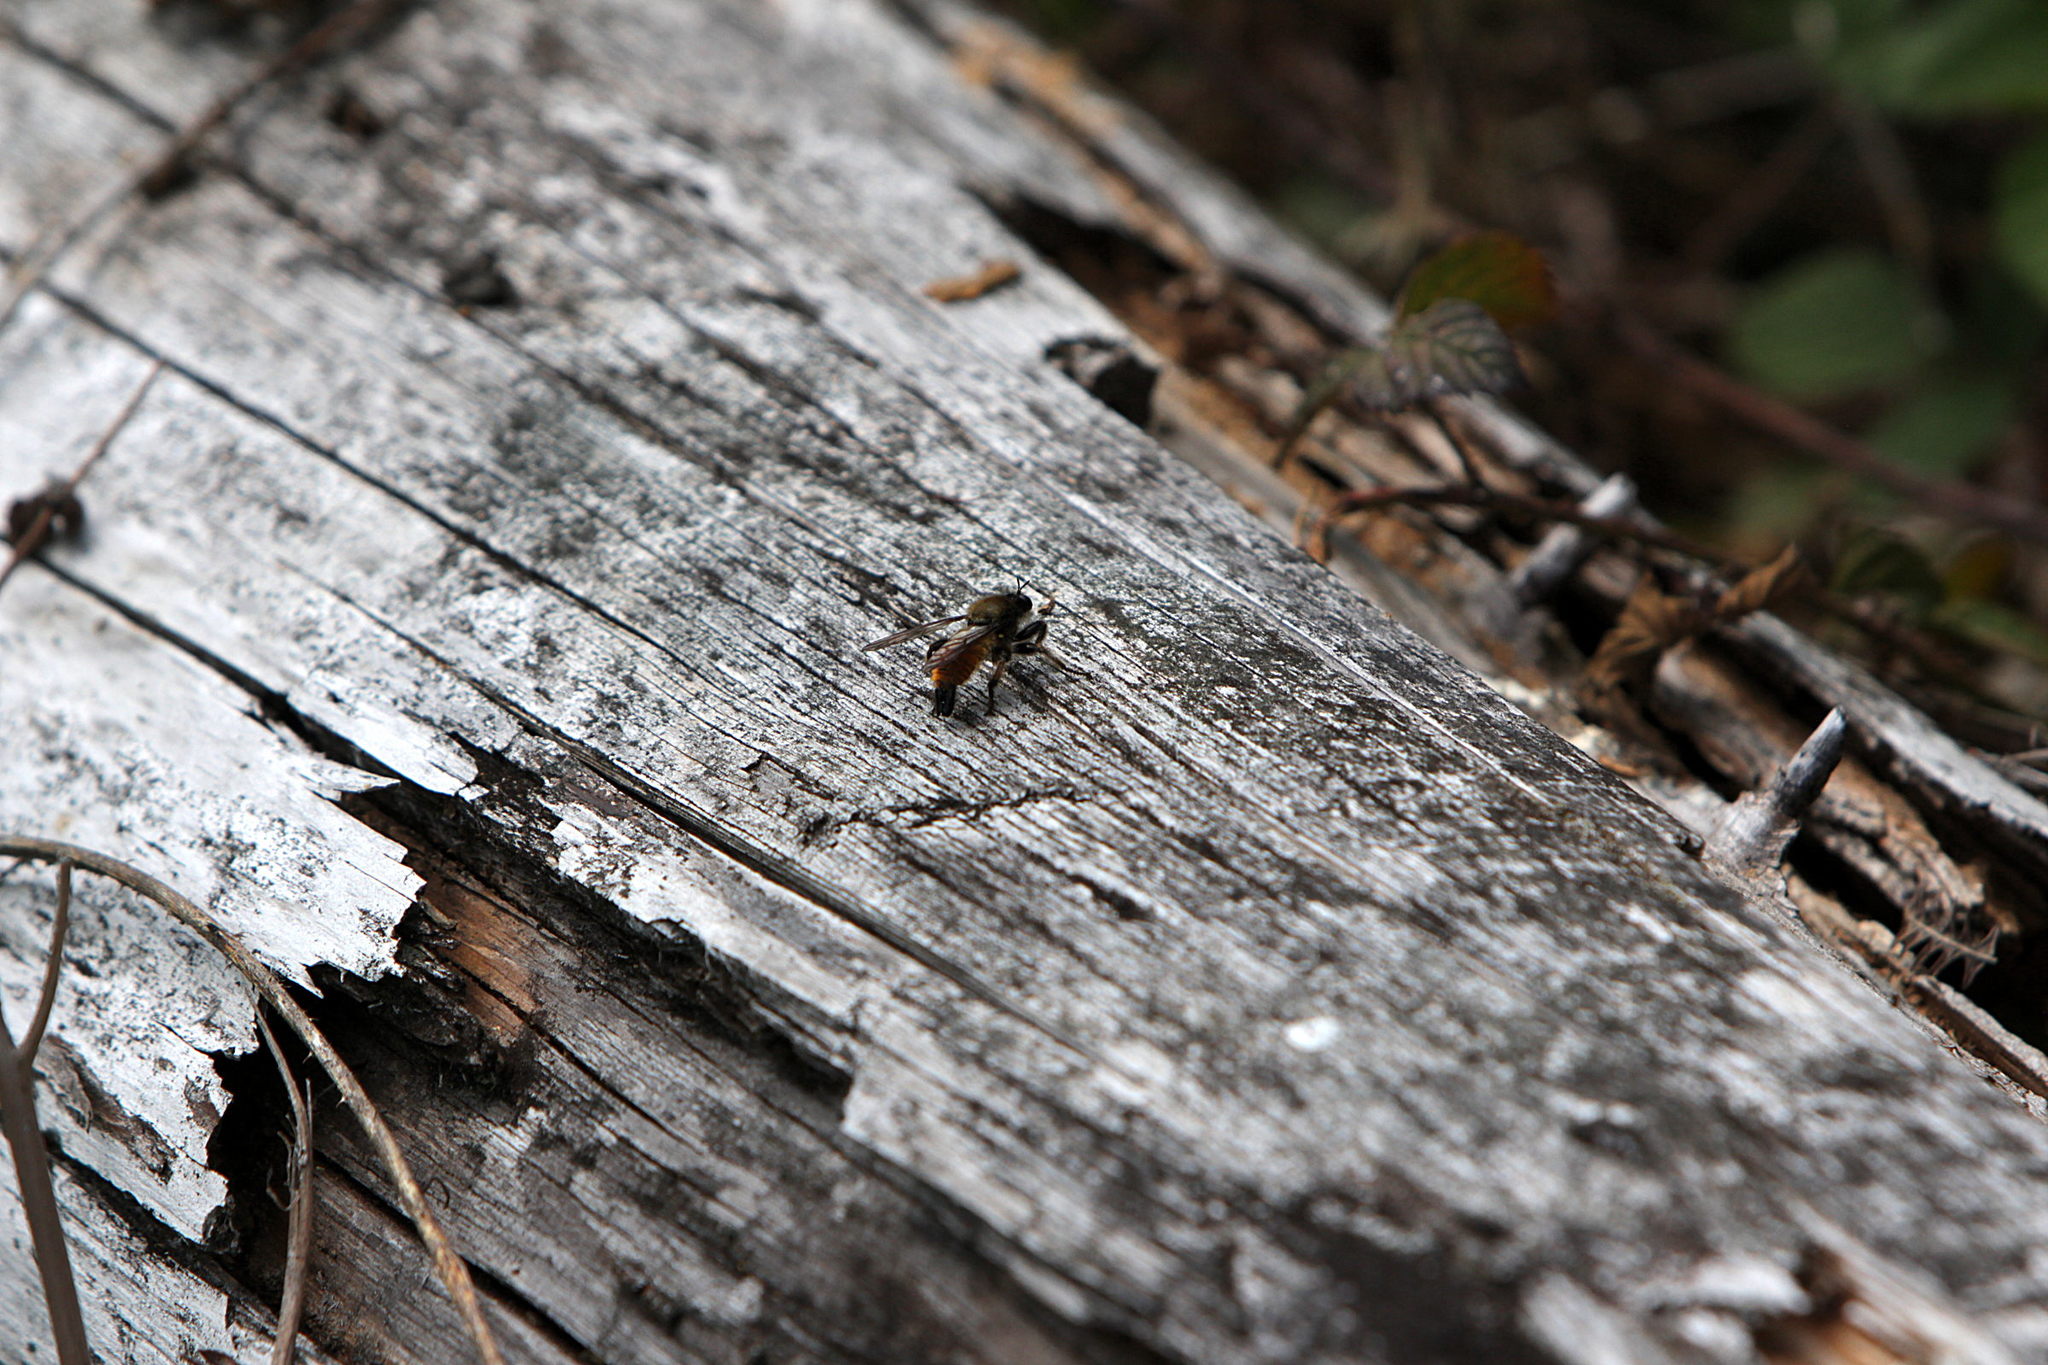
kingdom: Animalia
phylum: Arthropoda
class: Insecta
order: Diptera
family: Asilidae
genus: Laphria
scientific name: Laphria flava
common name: Bumblebee robberfly
